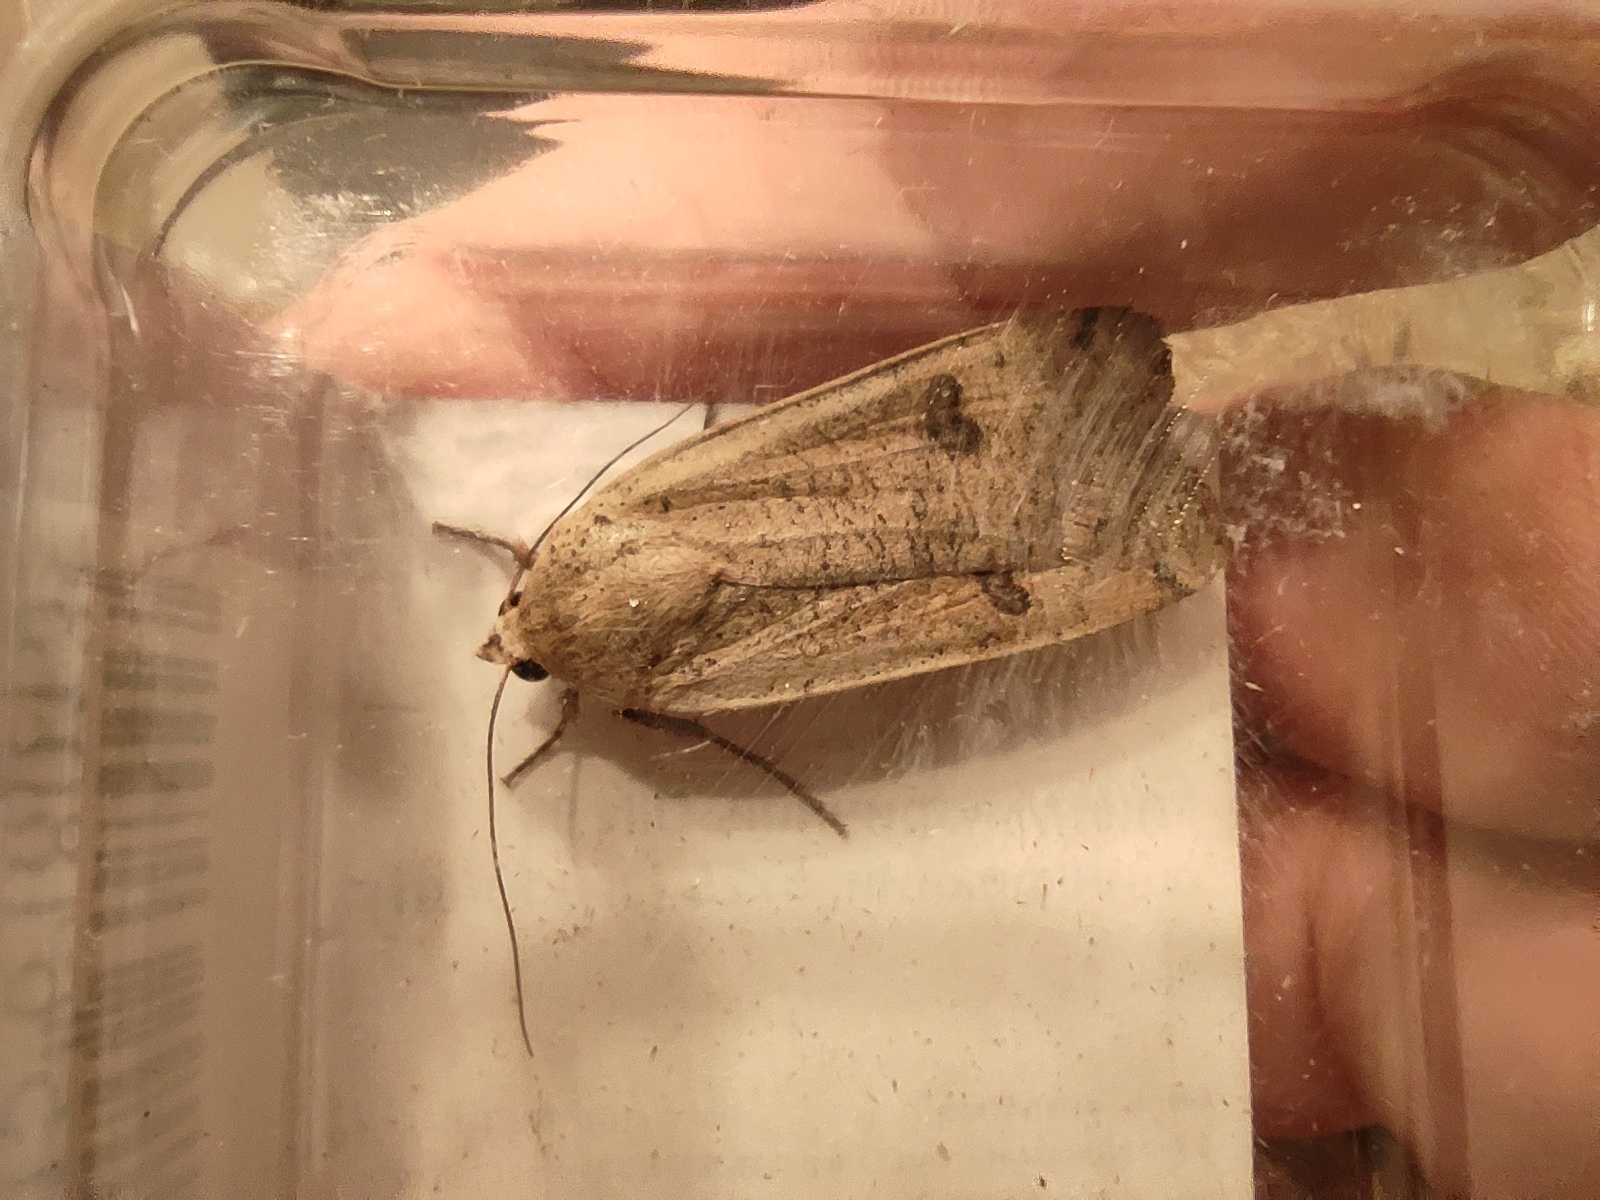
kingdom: Animalia
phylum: Arthropoda
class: Insecta
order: Lepidoptera
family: Noctuidae
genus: Noctua
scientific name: Noctua pronuba
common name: Large yellow underwing
